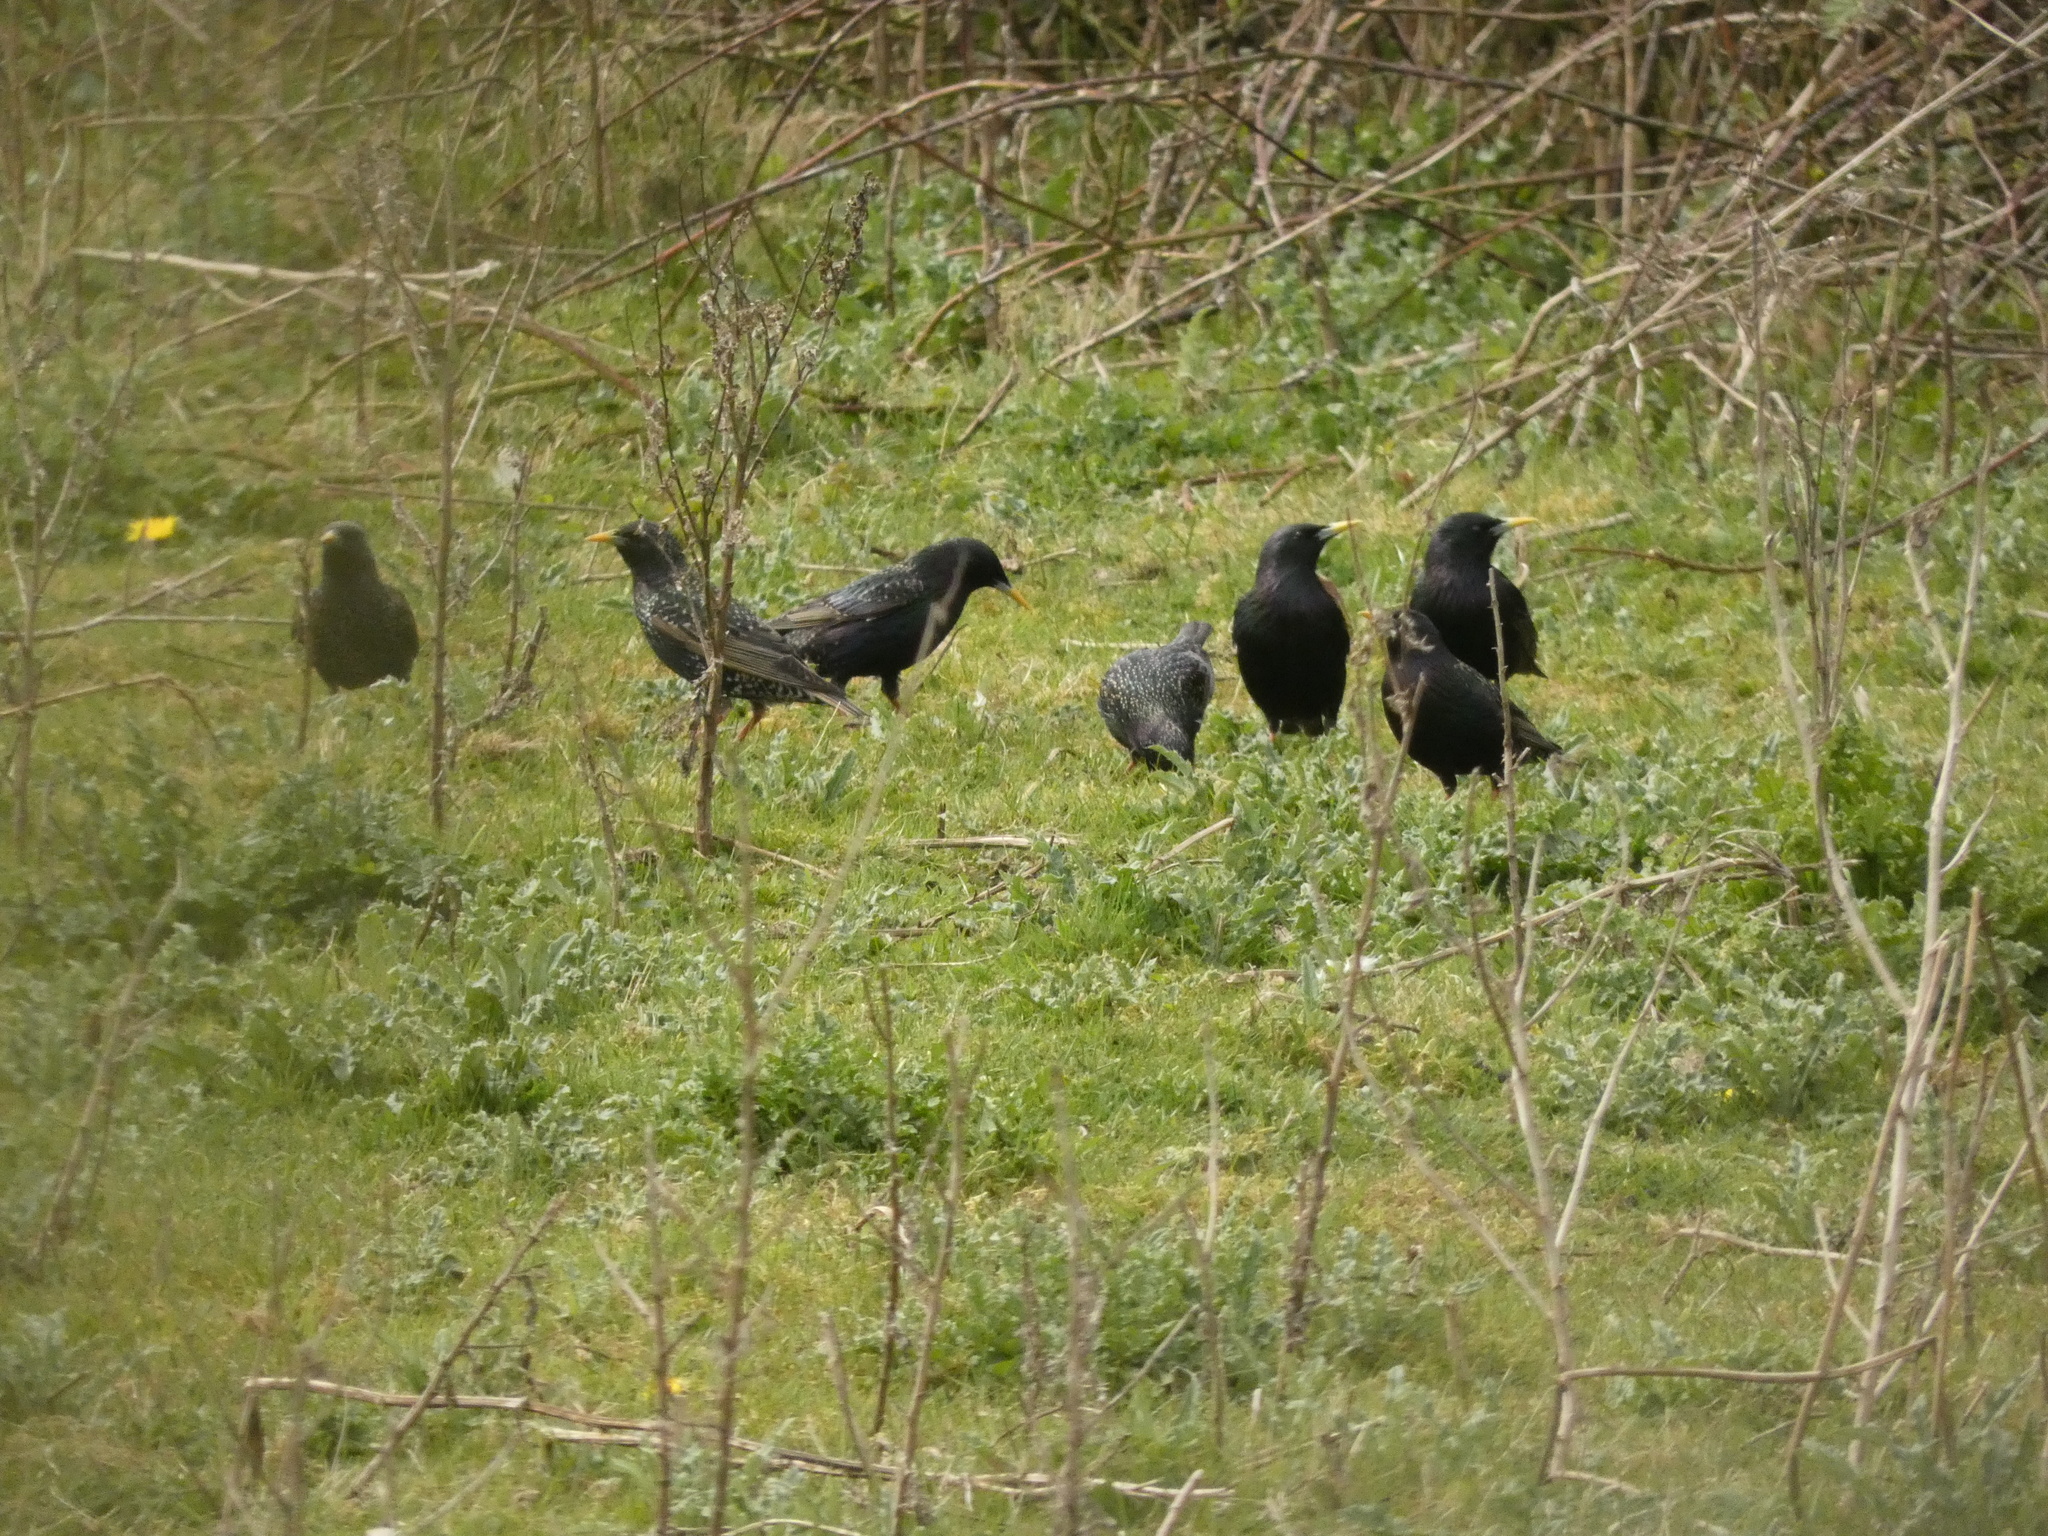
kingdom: Animalia
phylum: Chordata
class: Aves
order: Passeriformes
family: Sturnidae
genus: Sturnus
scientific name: Sturnus vulgaris
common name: Common starling
